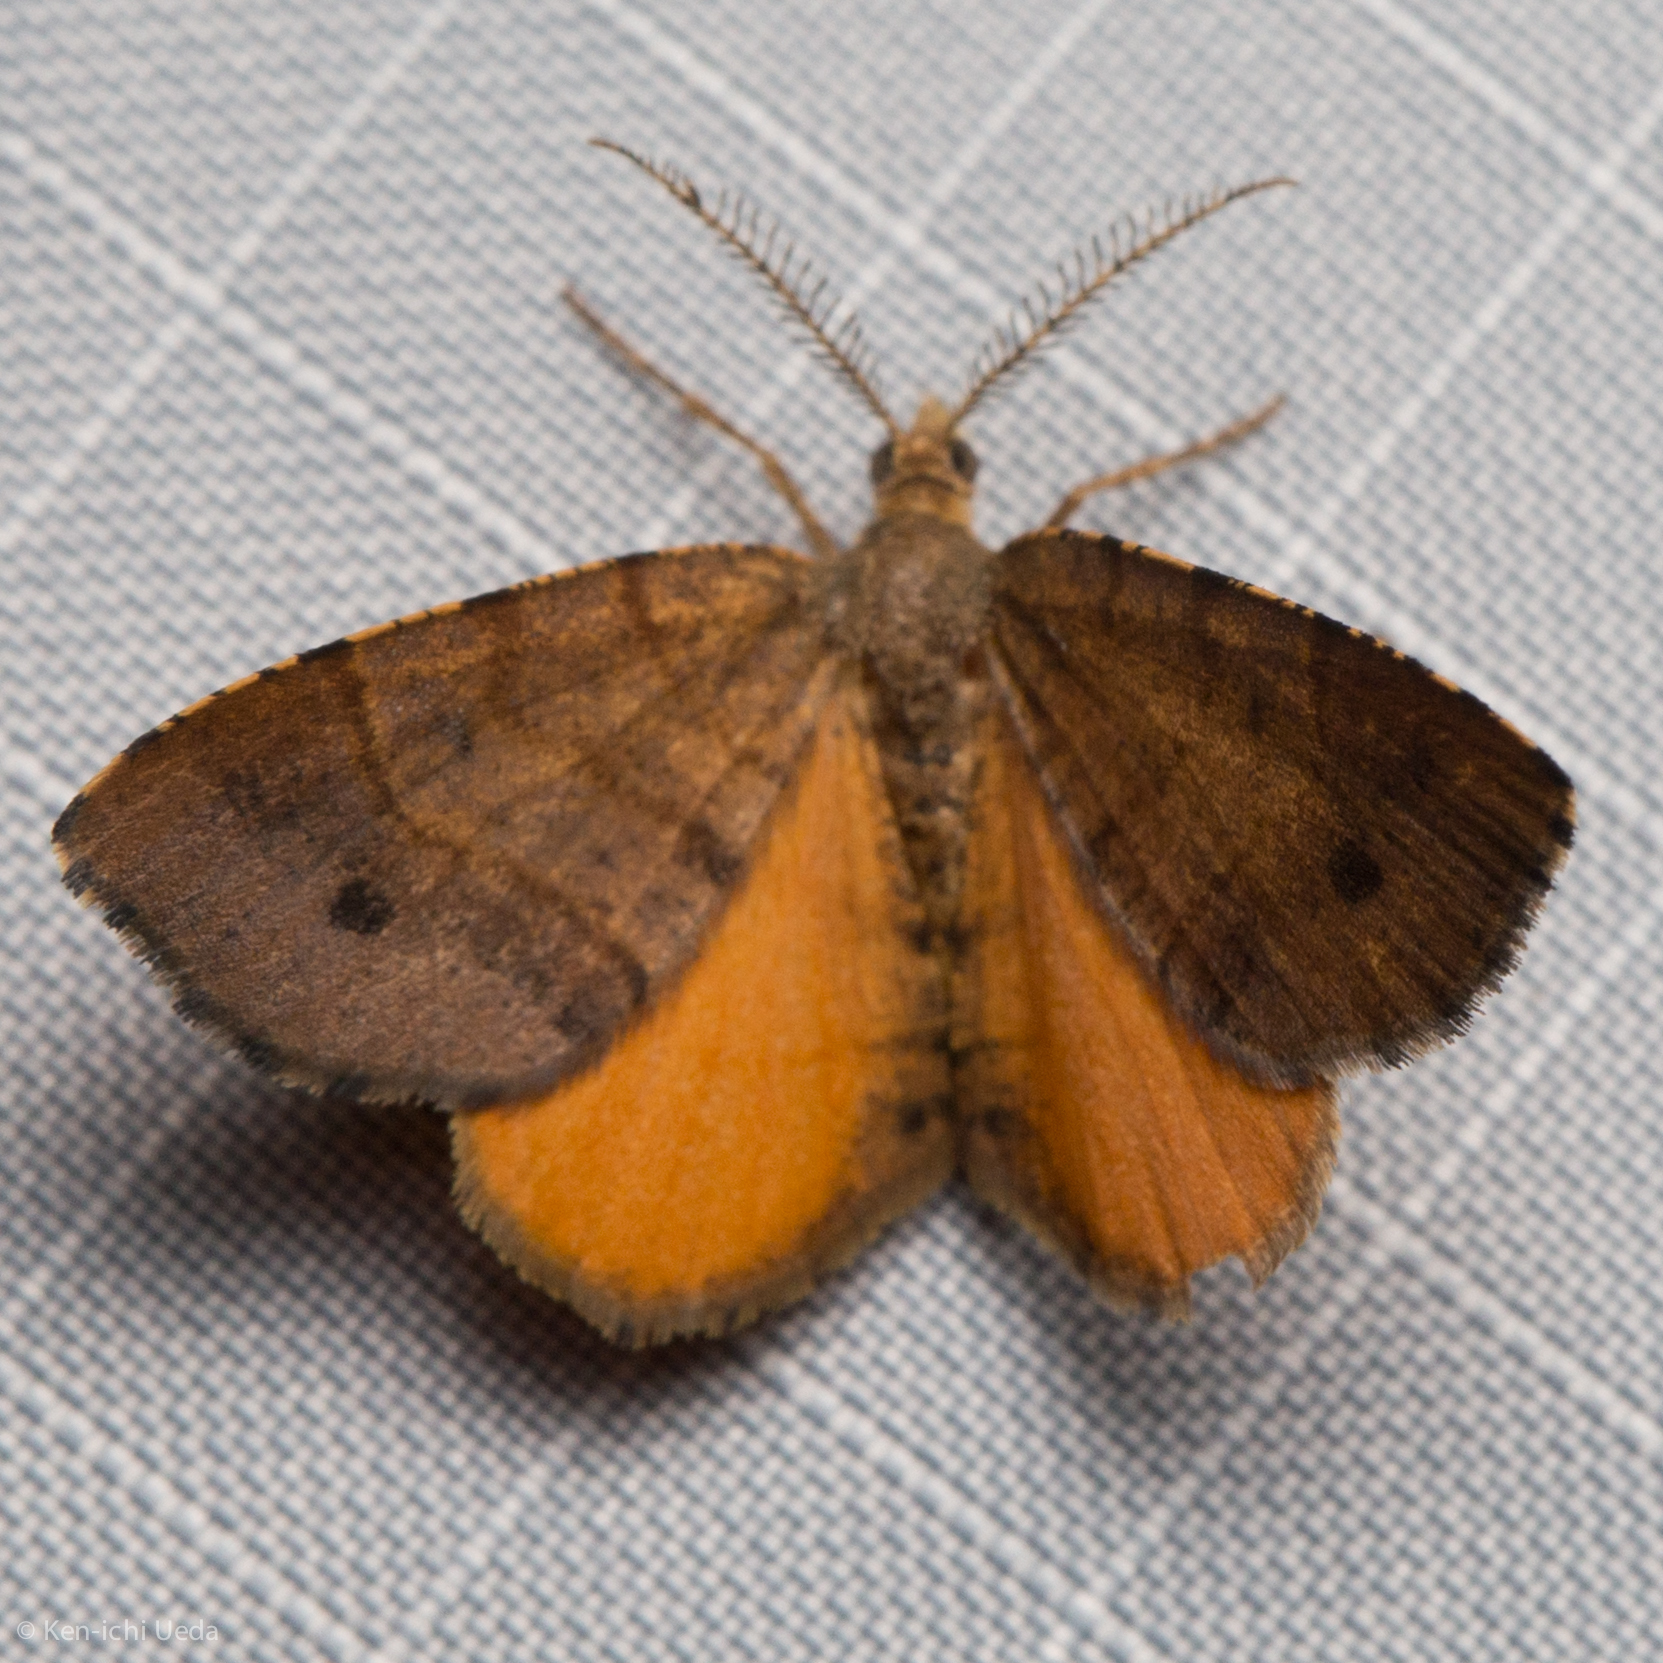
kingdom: Animalia
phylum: Arthropoda
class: Insecta
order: Lepidoptera
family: Geometridae
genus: Mellilla
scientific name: Mellilla xanthometata
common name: Orange wing moth
